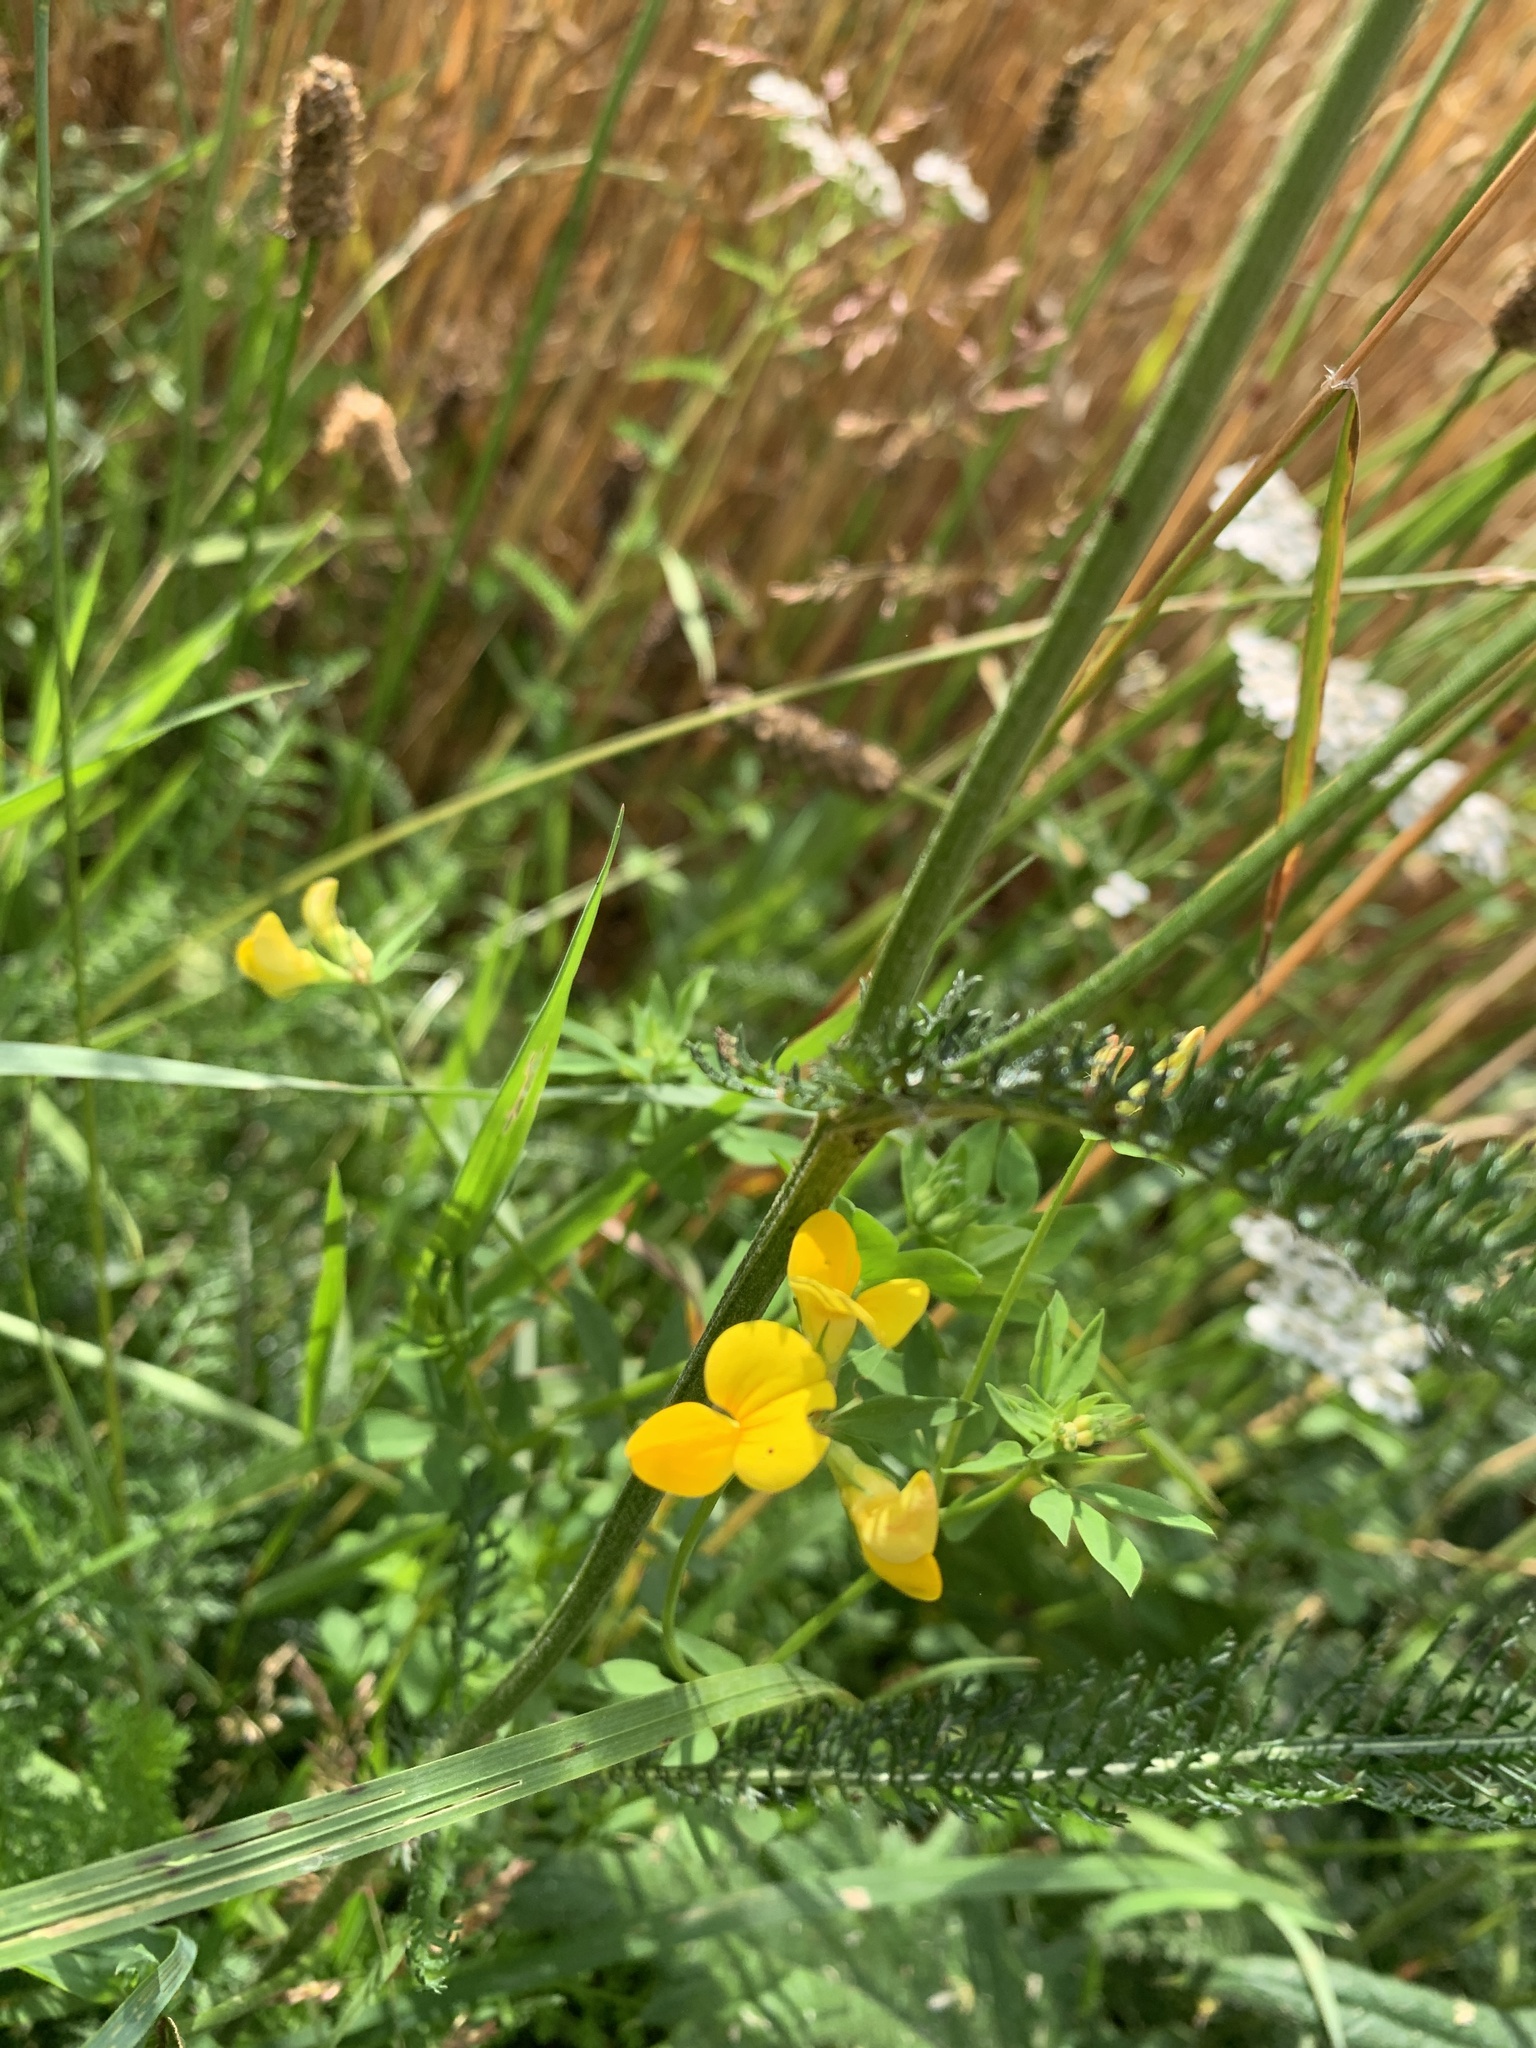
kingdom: Plantae
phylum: Tracheophyta
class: Magnoliopsida
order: Fabales
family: Fabaceae
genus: Lotus
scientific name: Lotus corniculatus
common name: Common bird's-foot-trefoil
